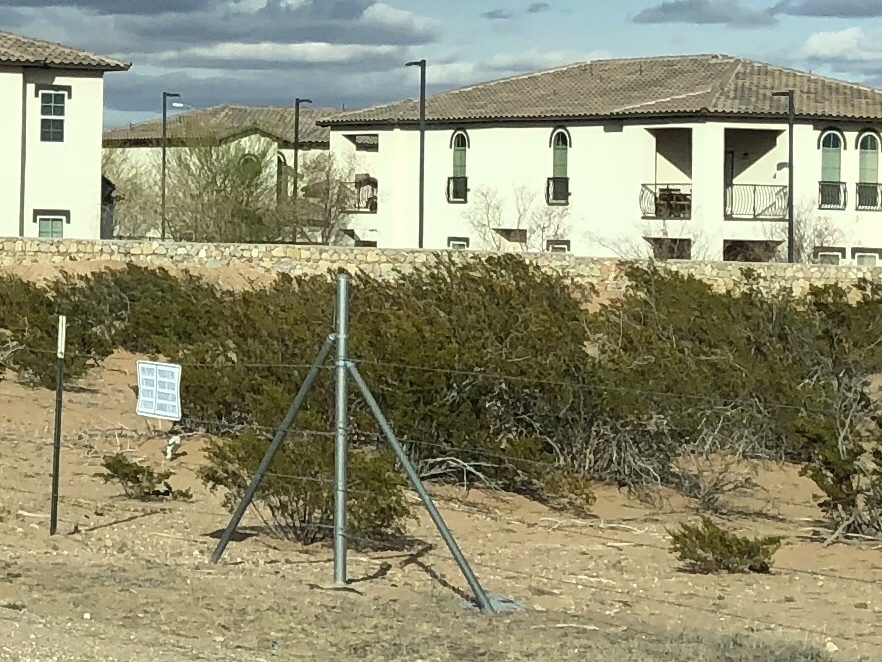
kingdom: Plantae
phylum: Tracheophyta
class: Magnoliopsida
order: Zygophyllales
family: Zygophyllaceae
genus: Larrea
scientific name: Larrea tridentata
